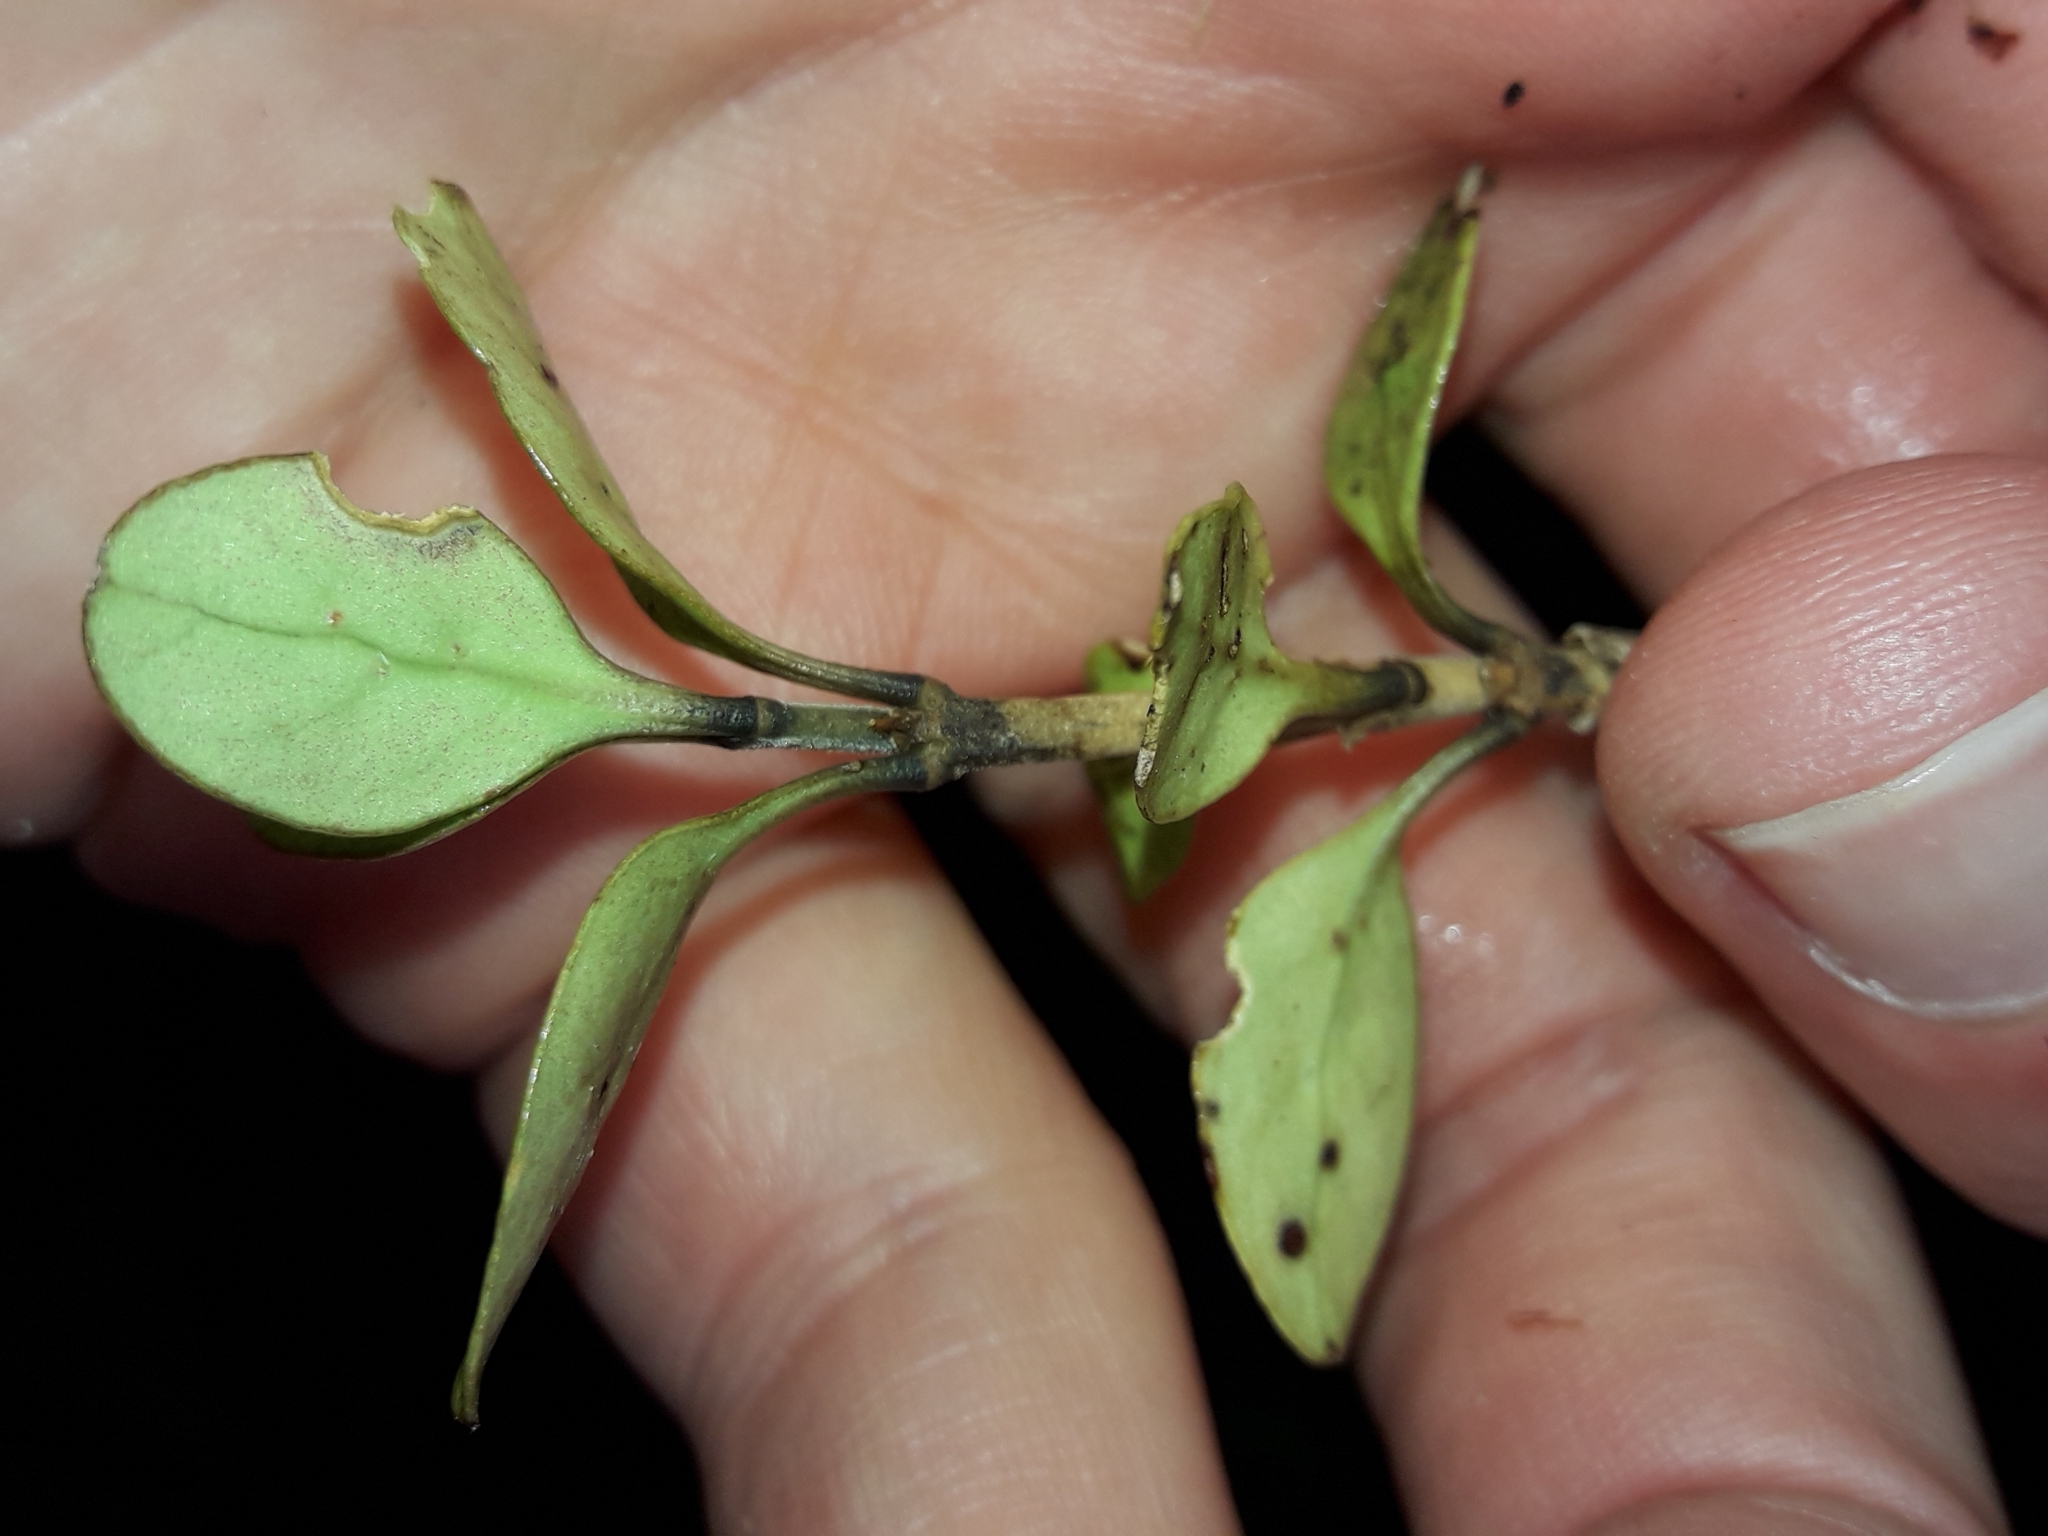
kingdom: Plantae
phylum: Tracheophyta
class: Magnoliopsida
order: Gentianales
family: Rubiaceae
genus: Coprosma
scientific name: Coprosma colensoi
